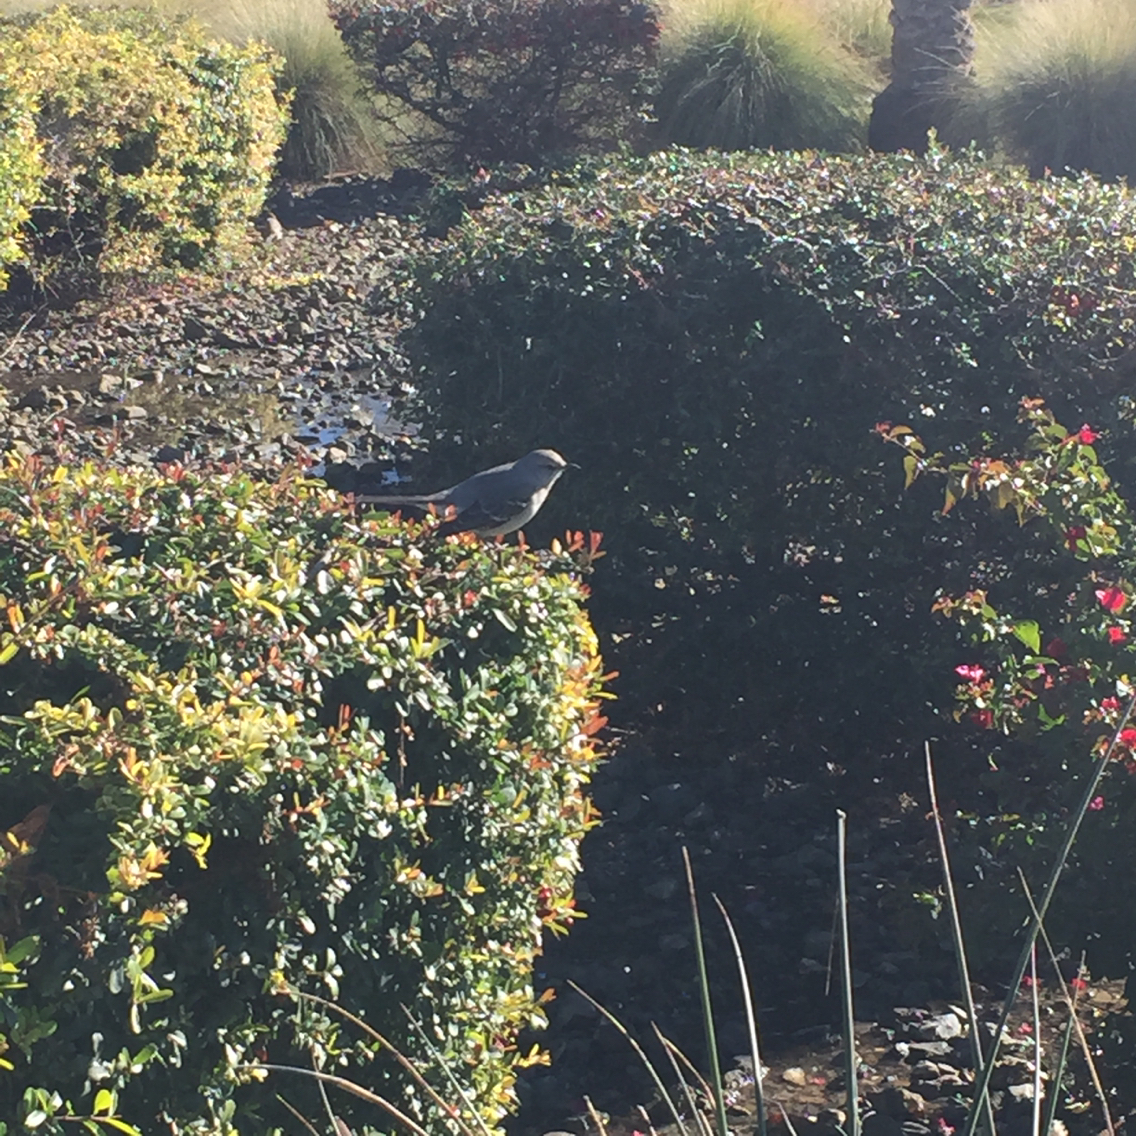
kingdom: Animalia
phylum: Chordata
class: Aves
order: Passeriformes
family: Mimidae
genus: Mimus
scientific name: Mimus polyglottos
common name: Northern mockingbird
